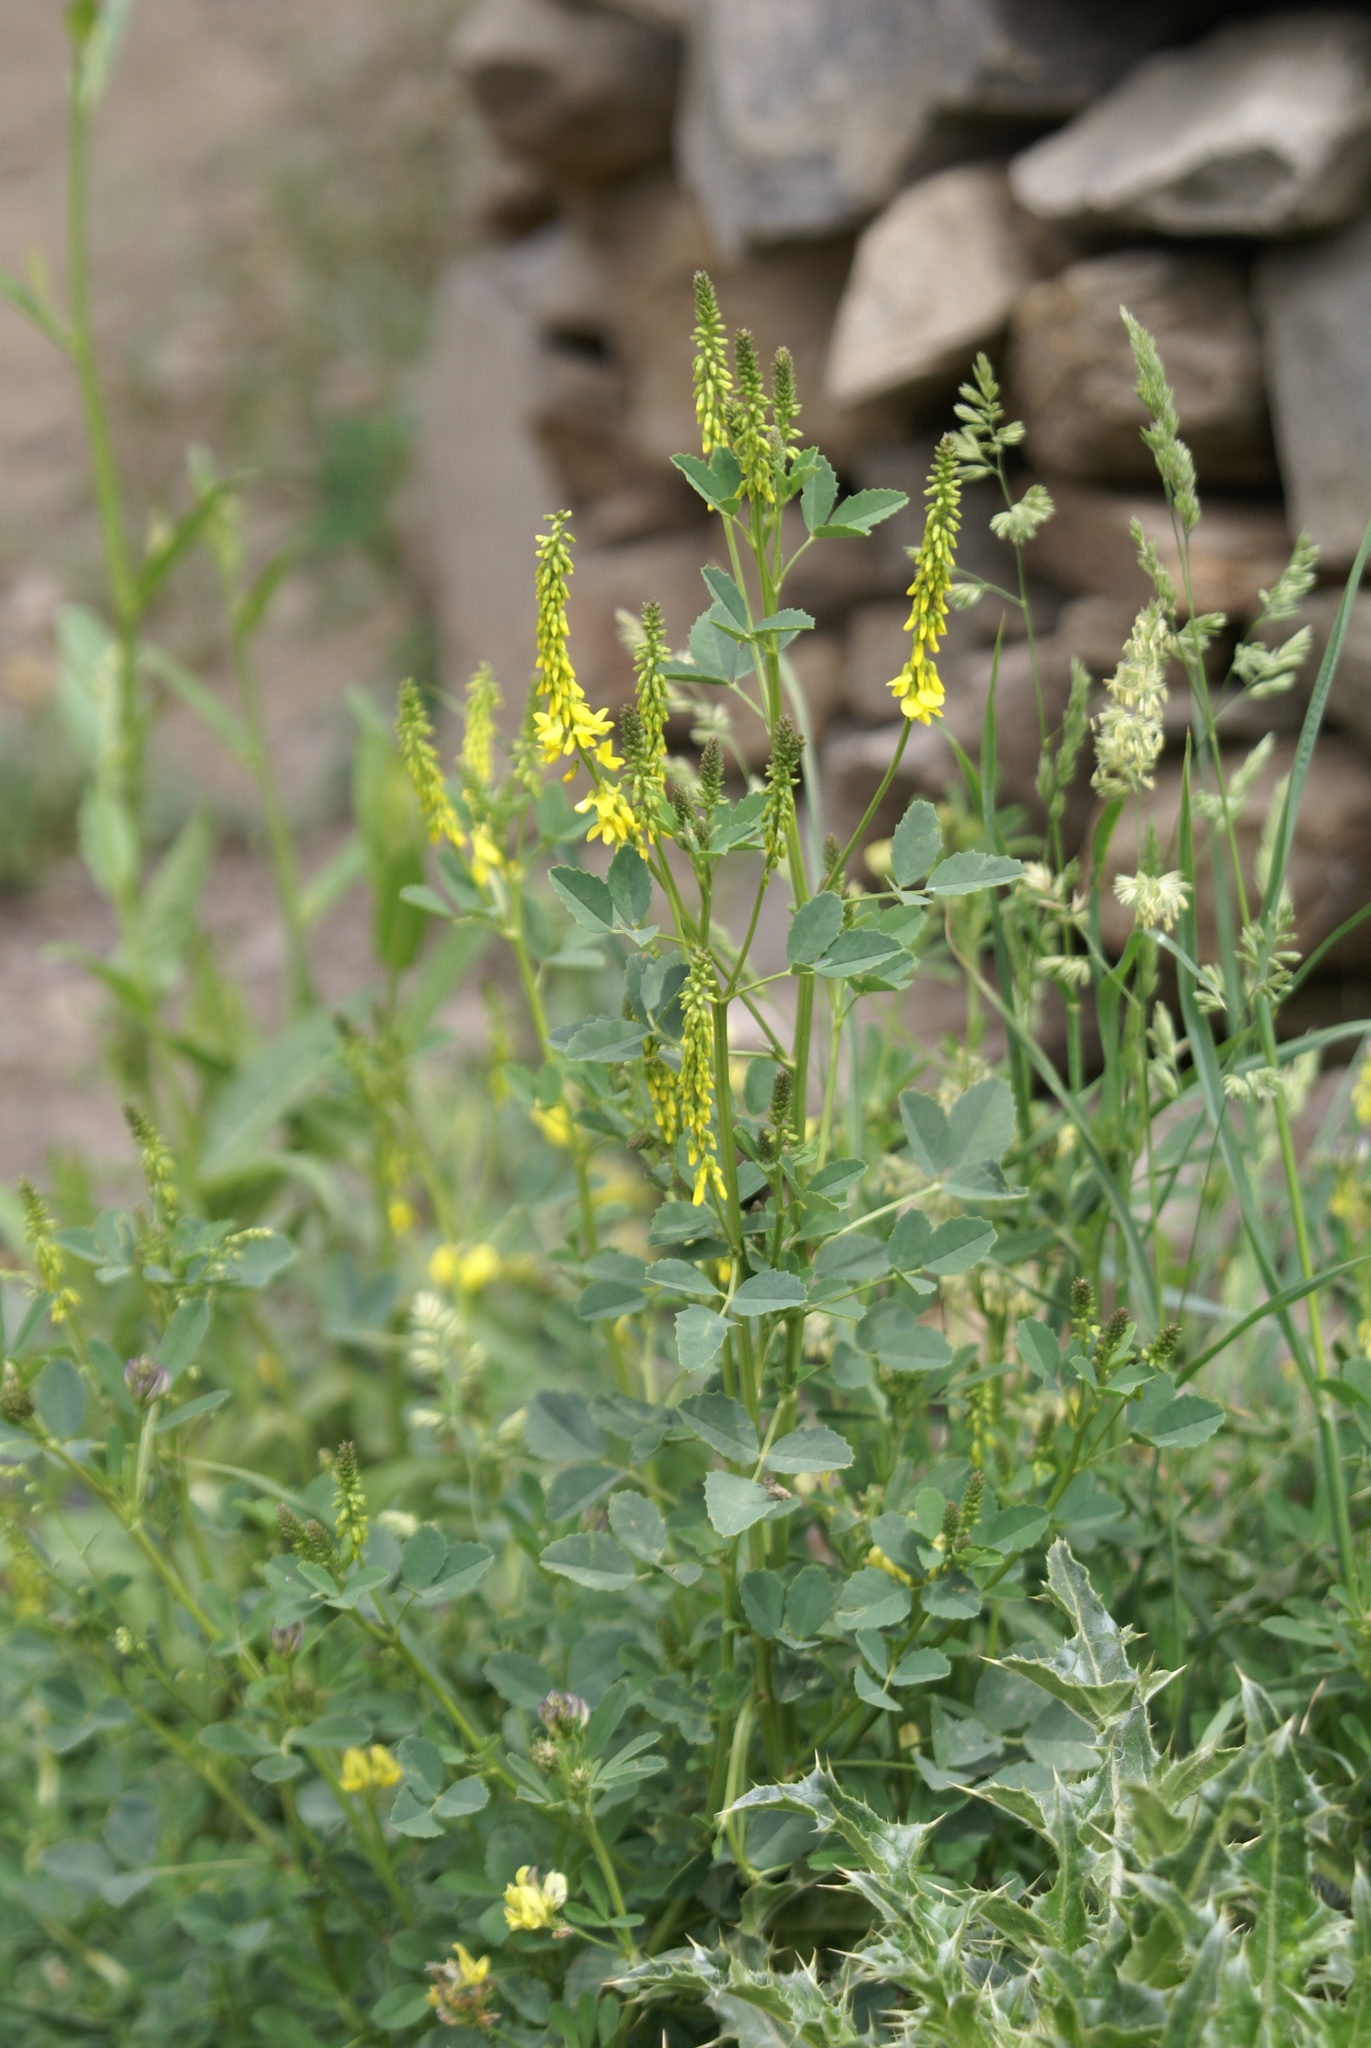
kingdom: Plantae
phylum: Tracheophyta
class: Magnoliopsida
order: Fabales
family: Fabaceae
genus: Melilotus
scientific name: Melilotus suaveolens
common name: Daghestan sweet-clover
